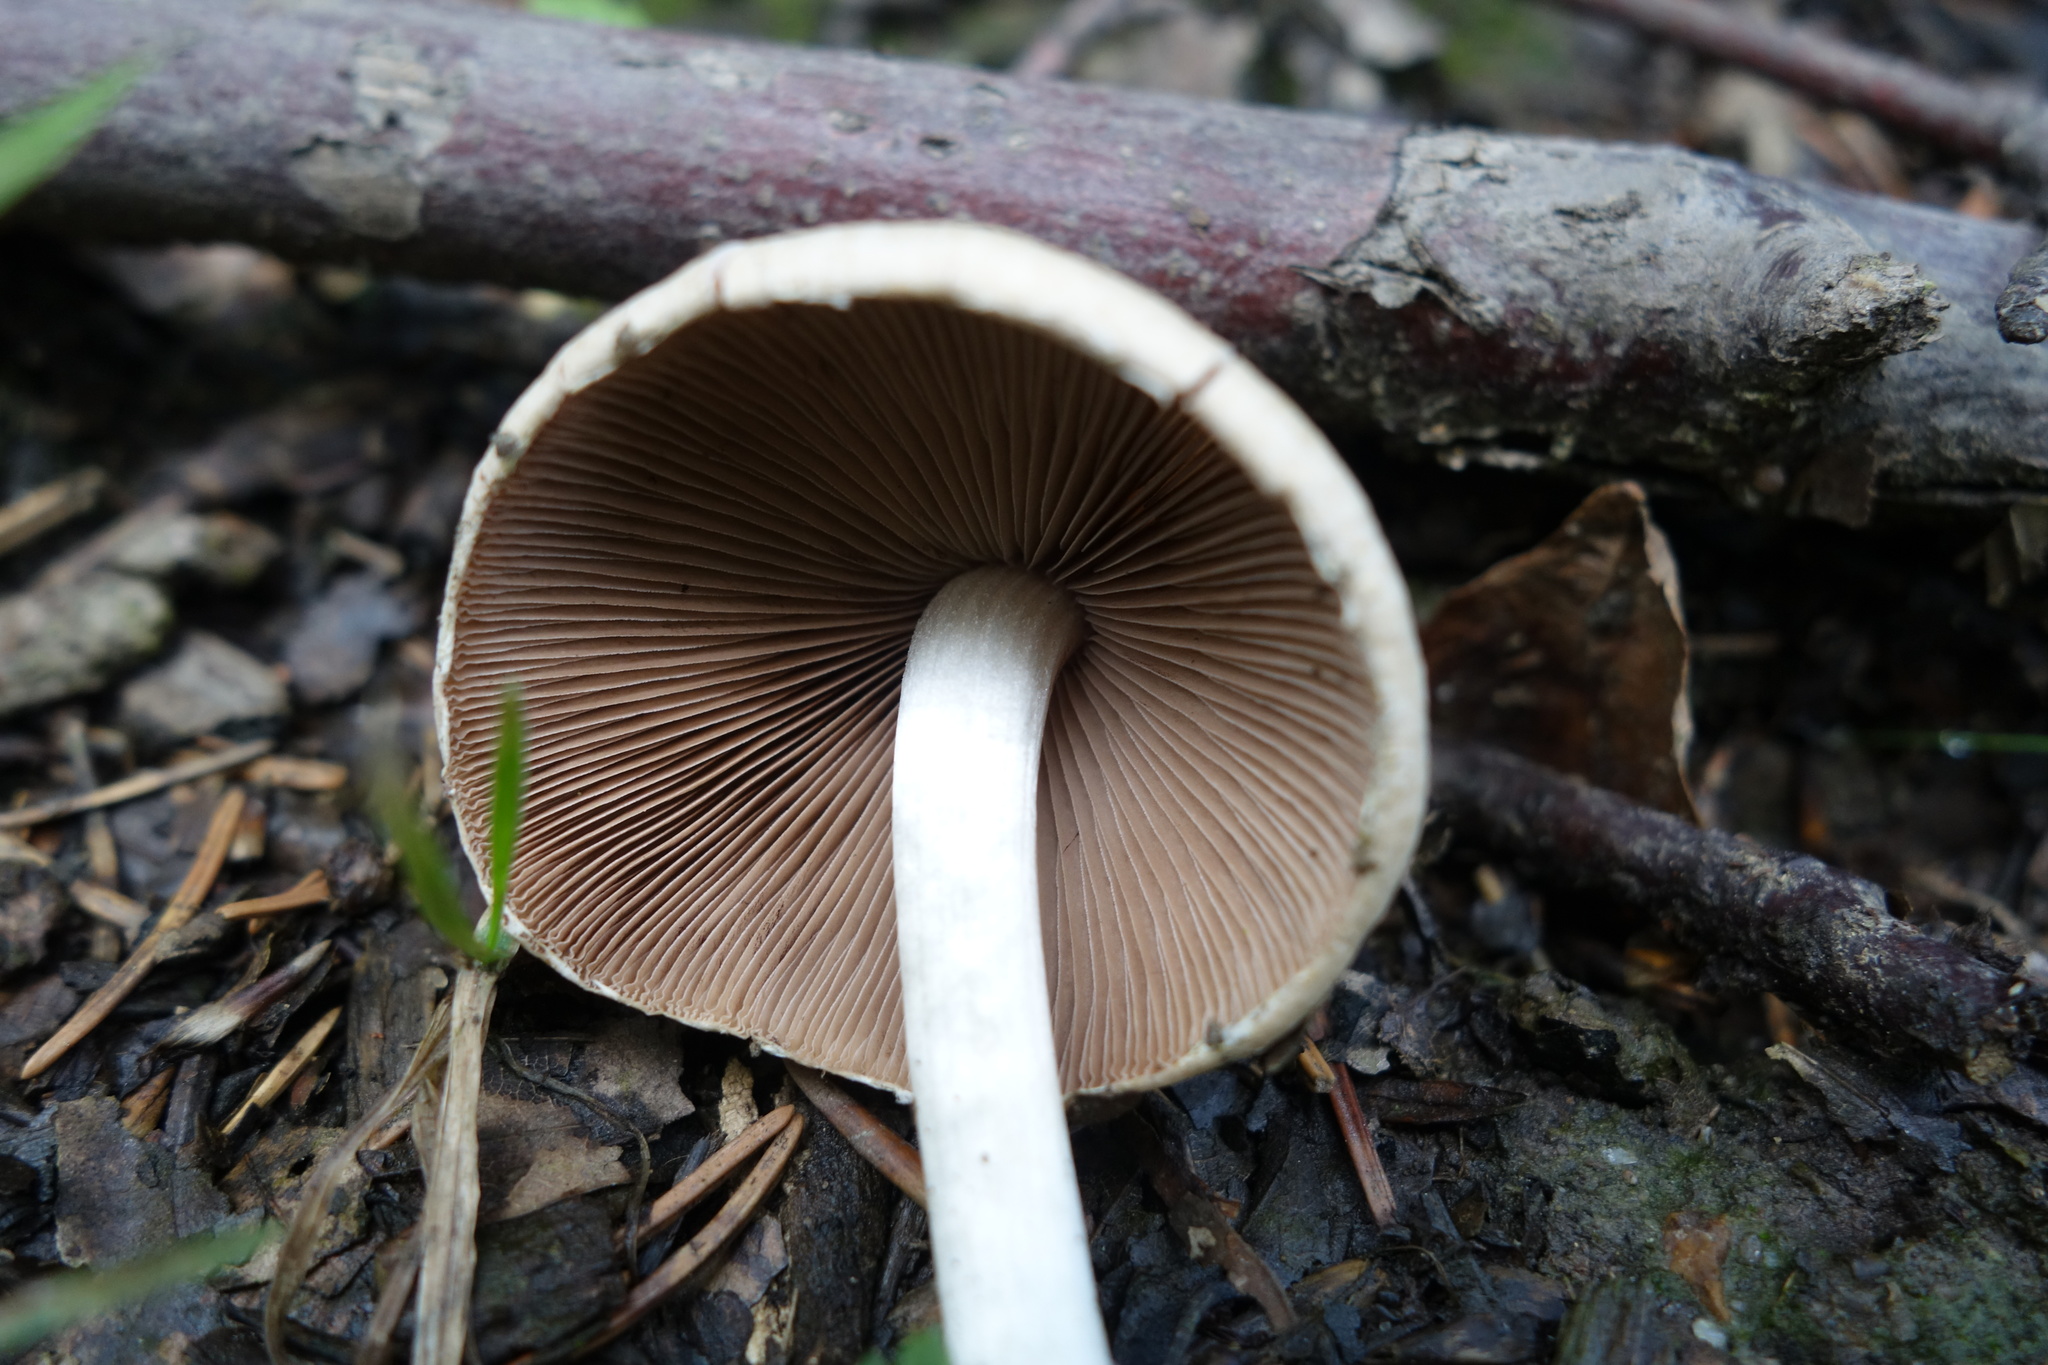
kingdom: Fungi
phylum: Basidiomycota
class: Agaricomycetes
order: Agaricales
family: Psathyrellaceae
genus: Candolleomyces
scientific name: Candolleomyces candolleanus
